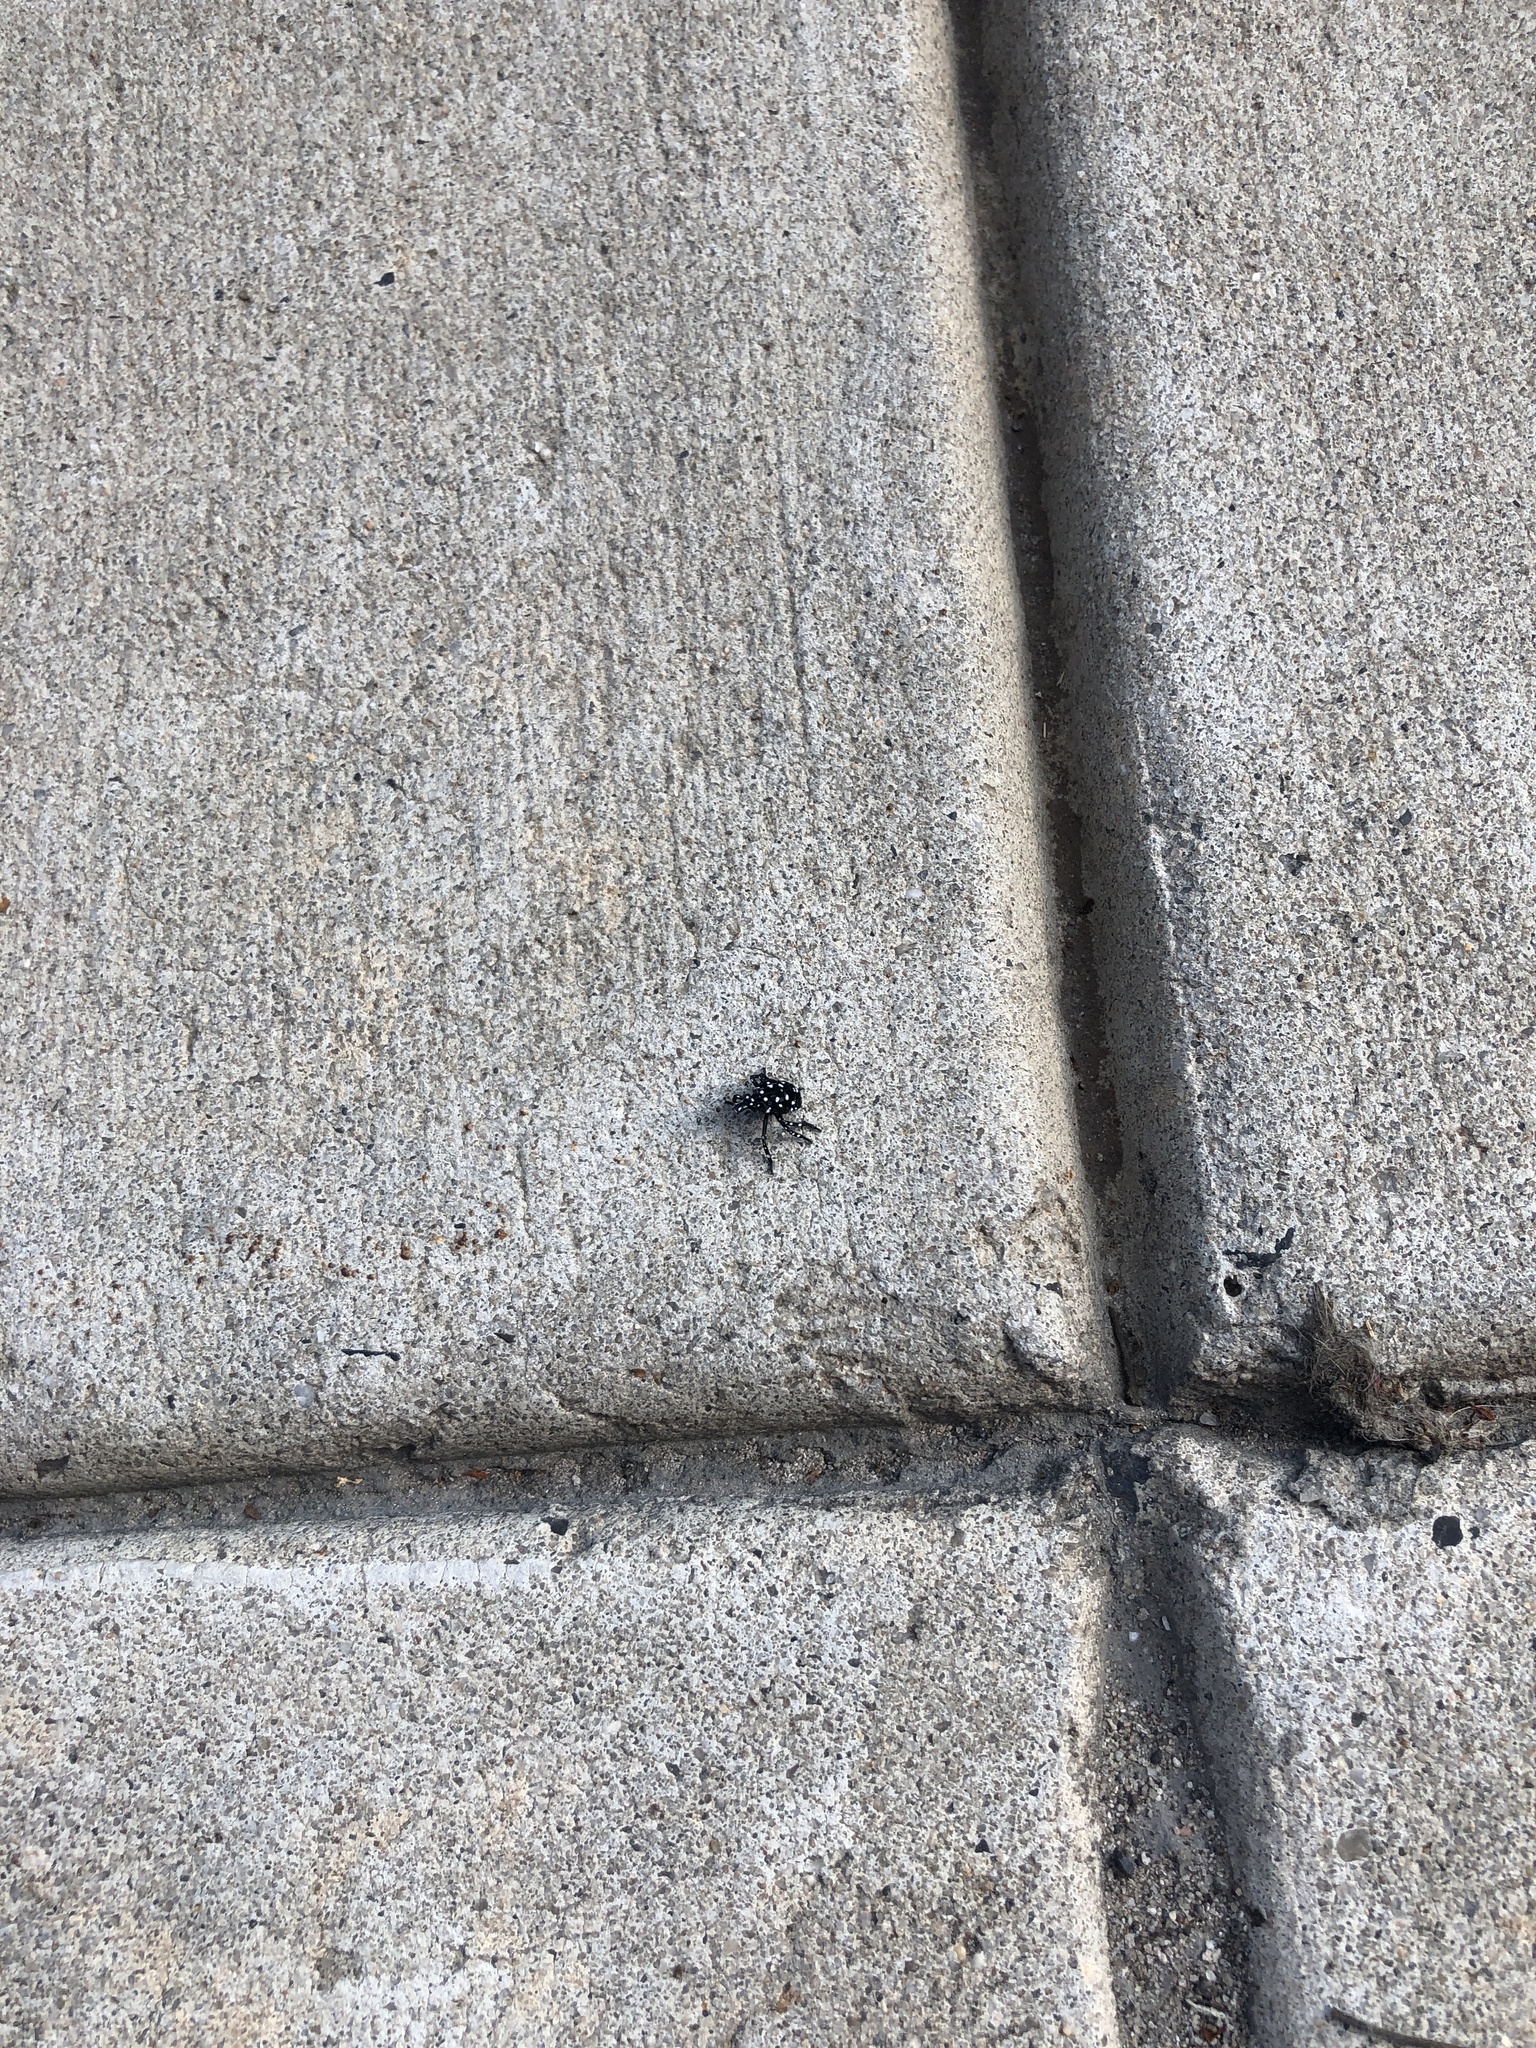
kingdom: Animalia
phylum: Arthropoda
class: Insecta
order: Hemiptera
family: Fulgoridae
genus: Lycorma
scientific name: Lycorma delicatula
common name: Spotted lanternfly
